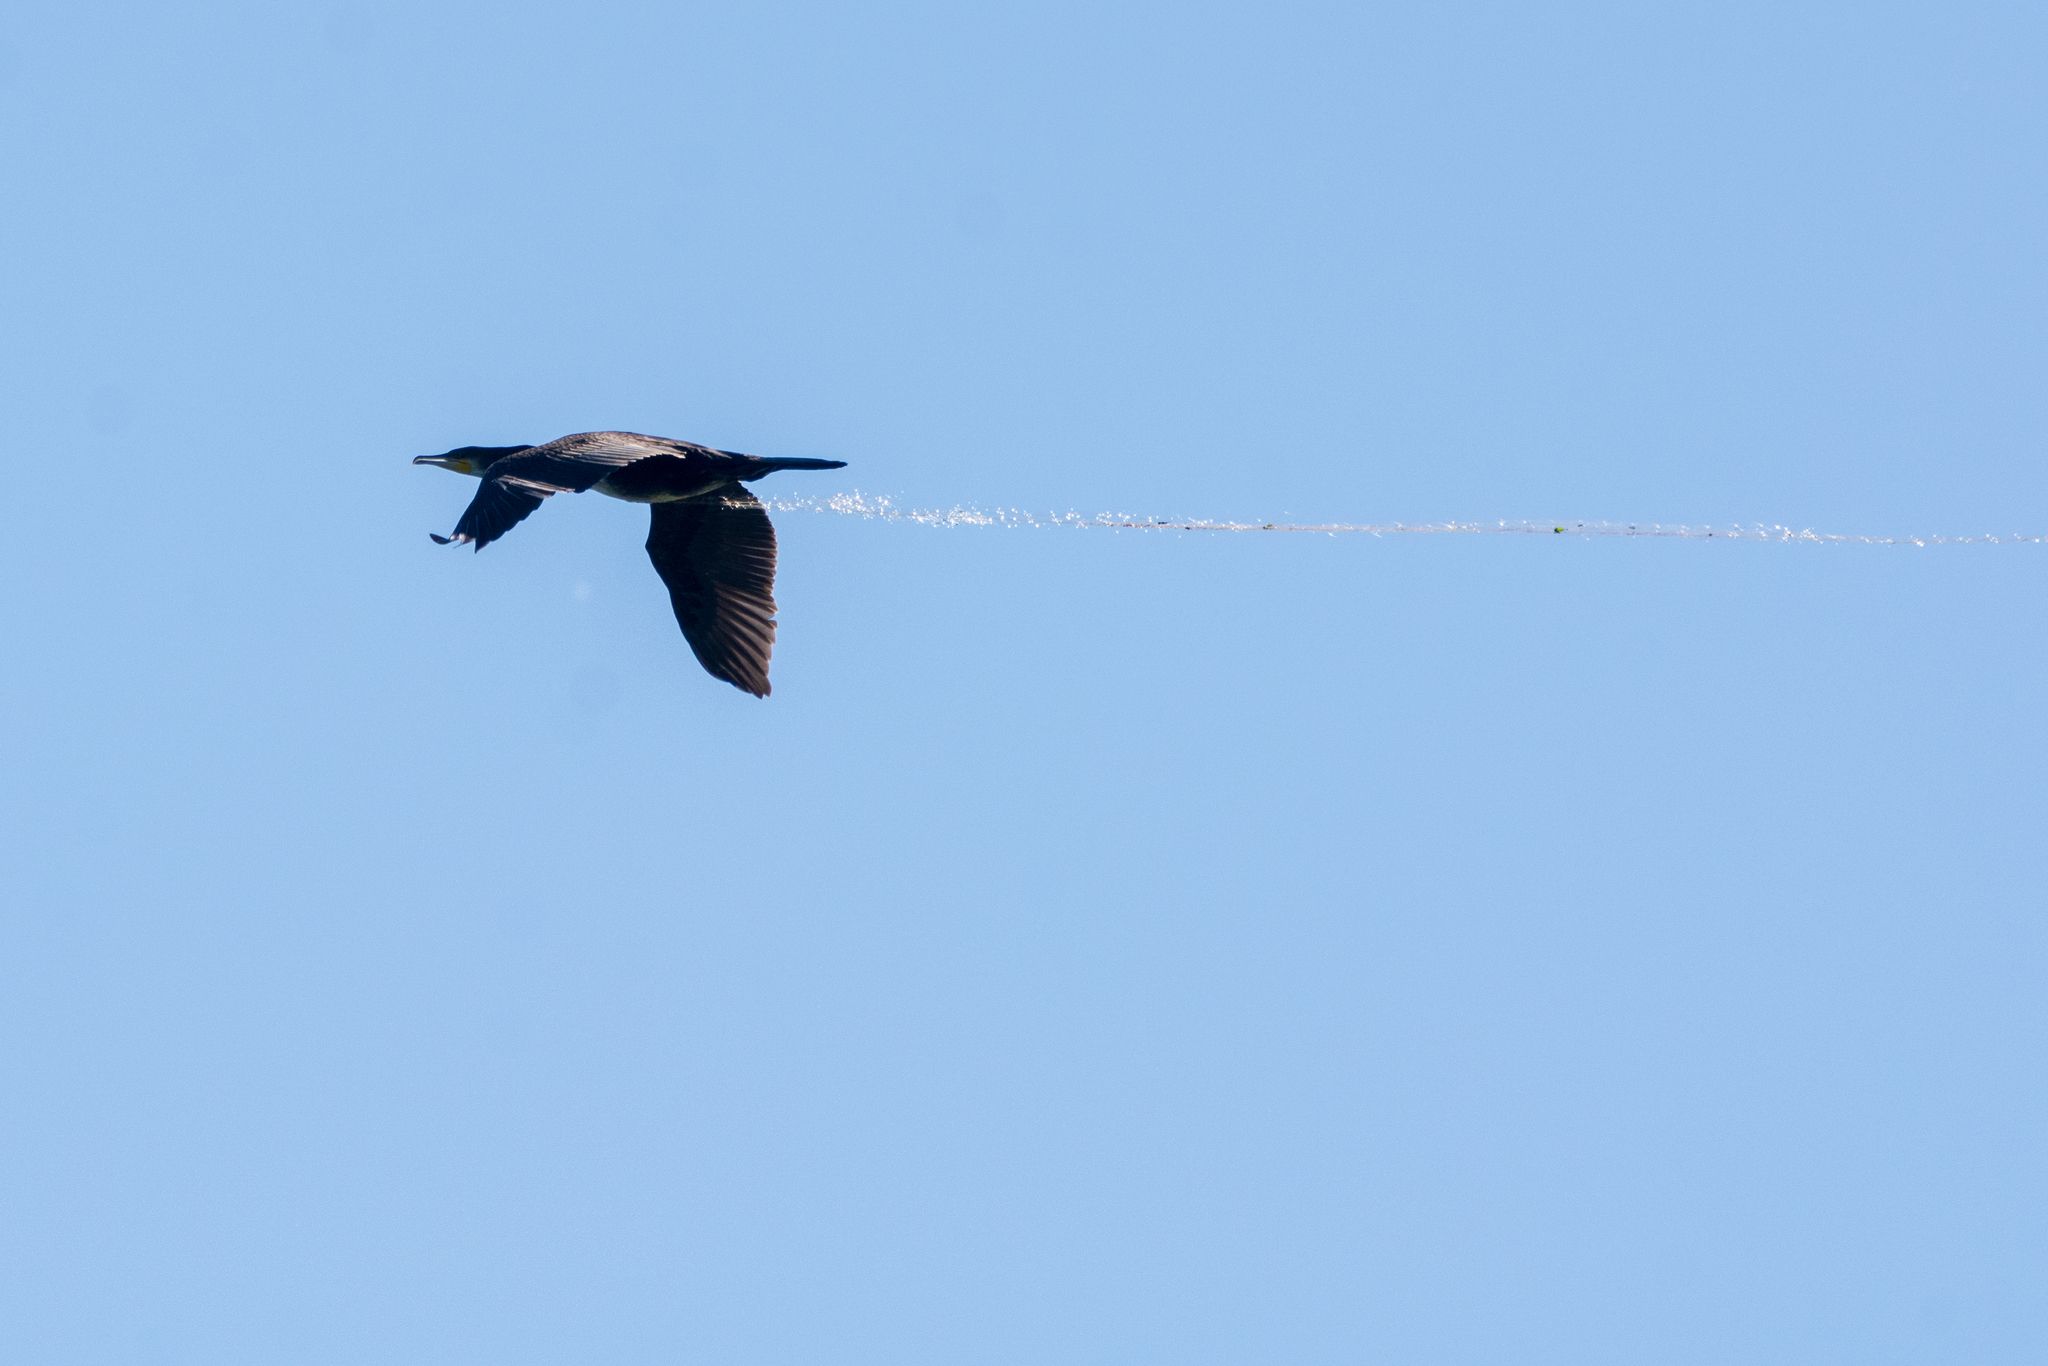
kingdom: Animalia
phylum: Chordata
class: Aves
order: Suliformes
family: Phalacrocoracidae
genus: Phalacrocorax
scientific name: Phalacrocorax carbo
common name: Great cormorant
